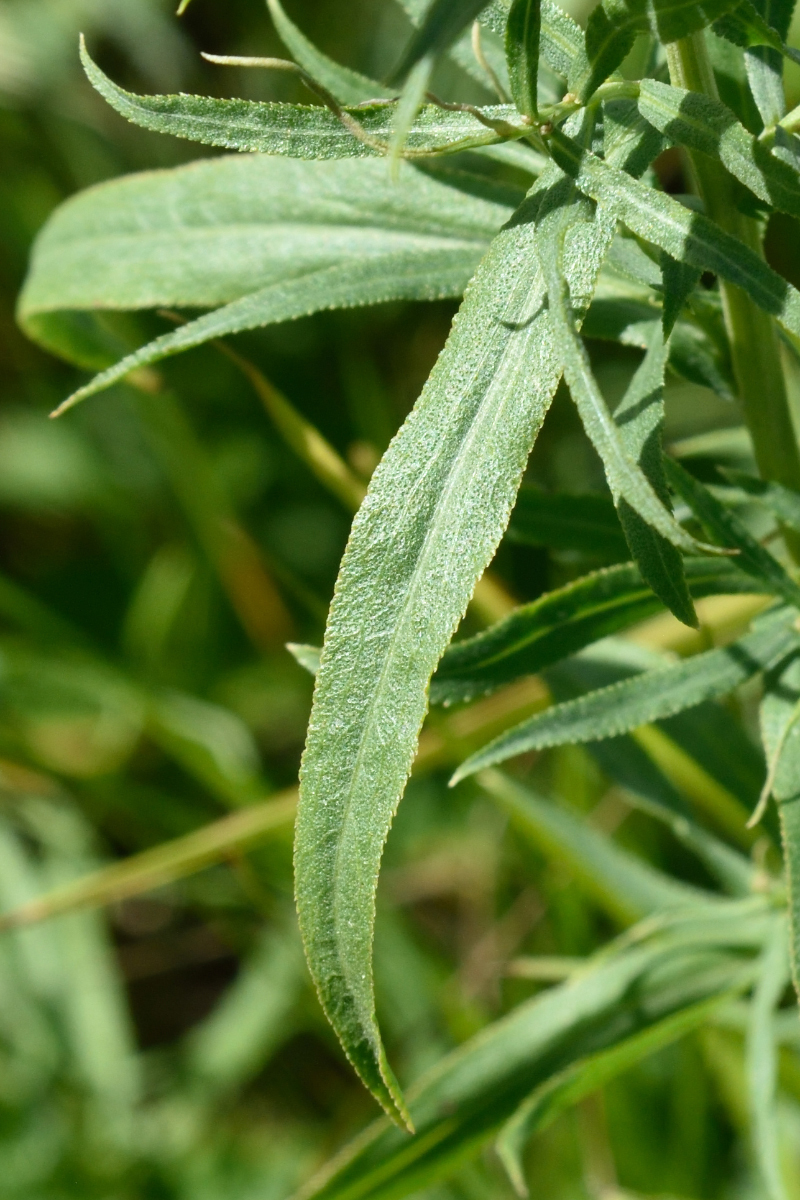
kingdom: Plantae
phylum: Tracheophyta
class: Magnoliopsida
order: Asterales
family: Asteraceae
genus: Achillea
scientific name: Achillea salicifolia
